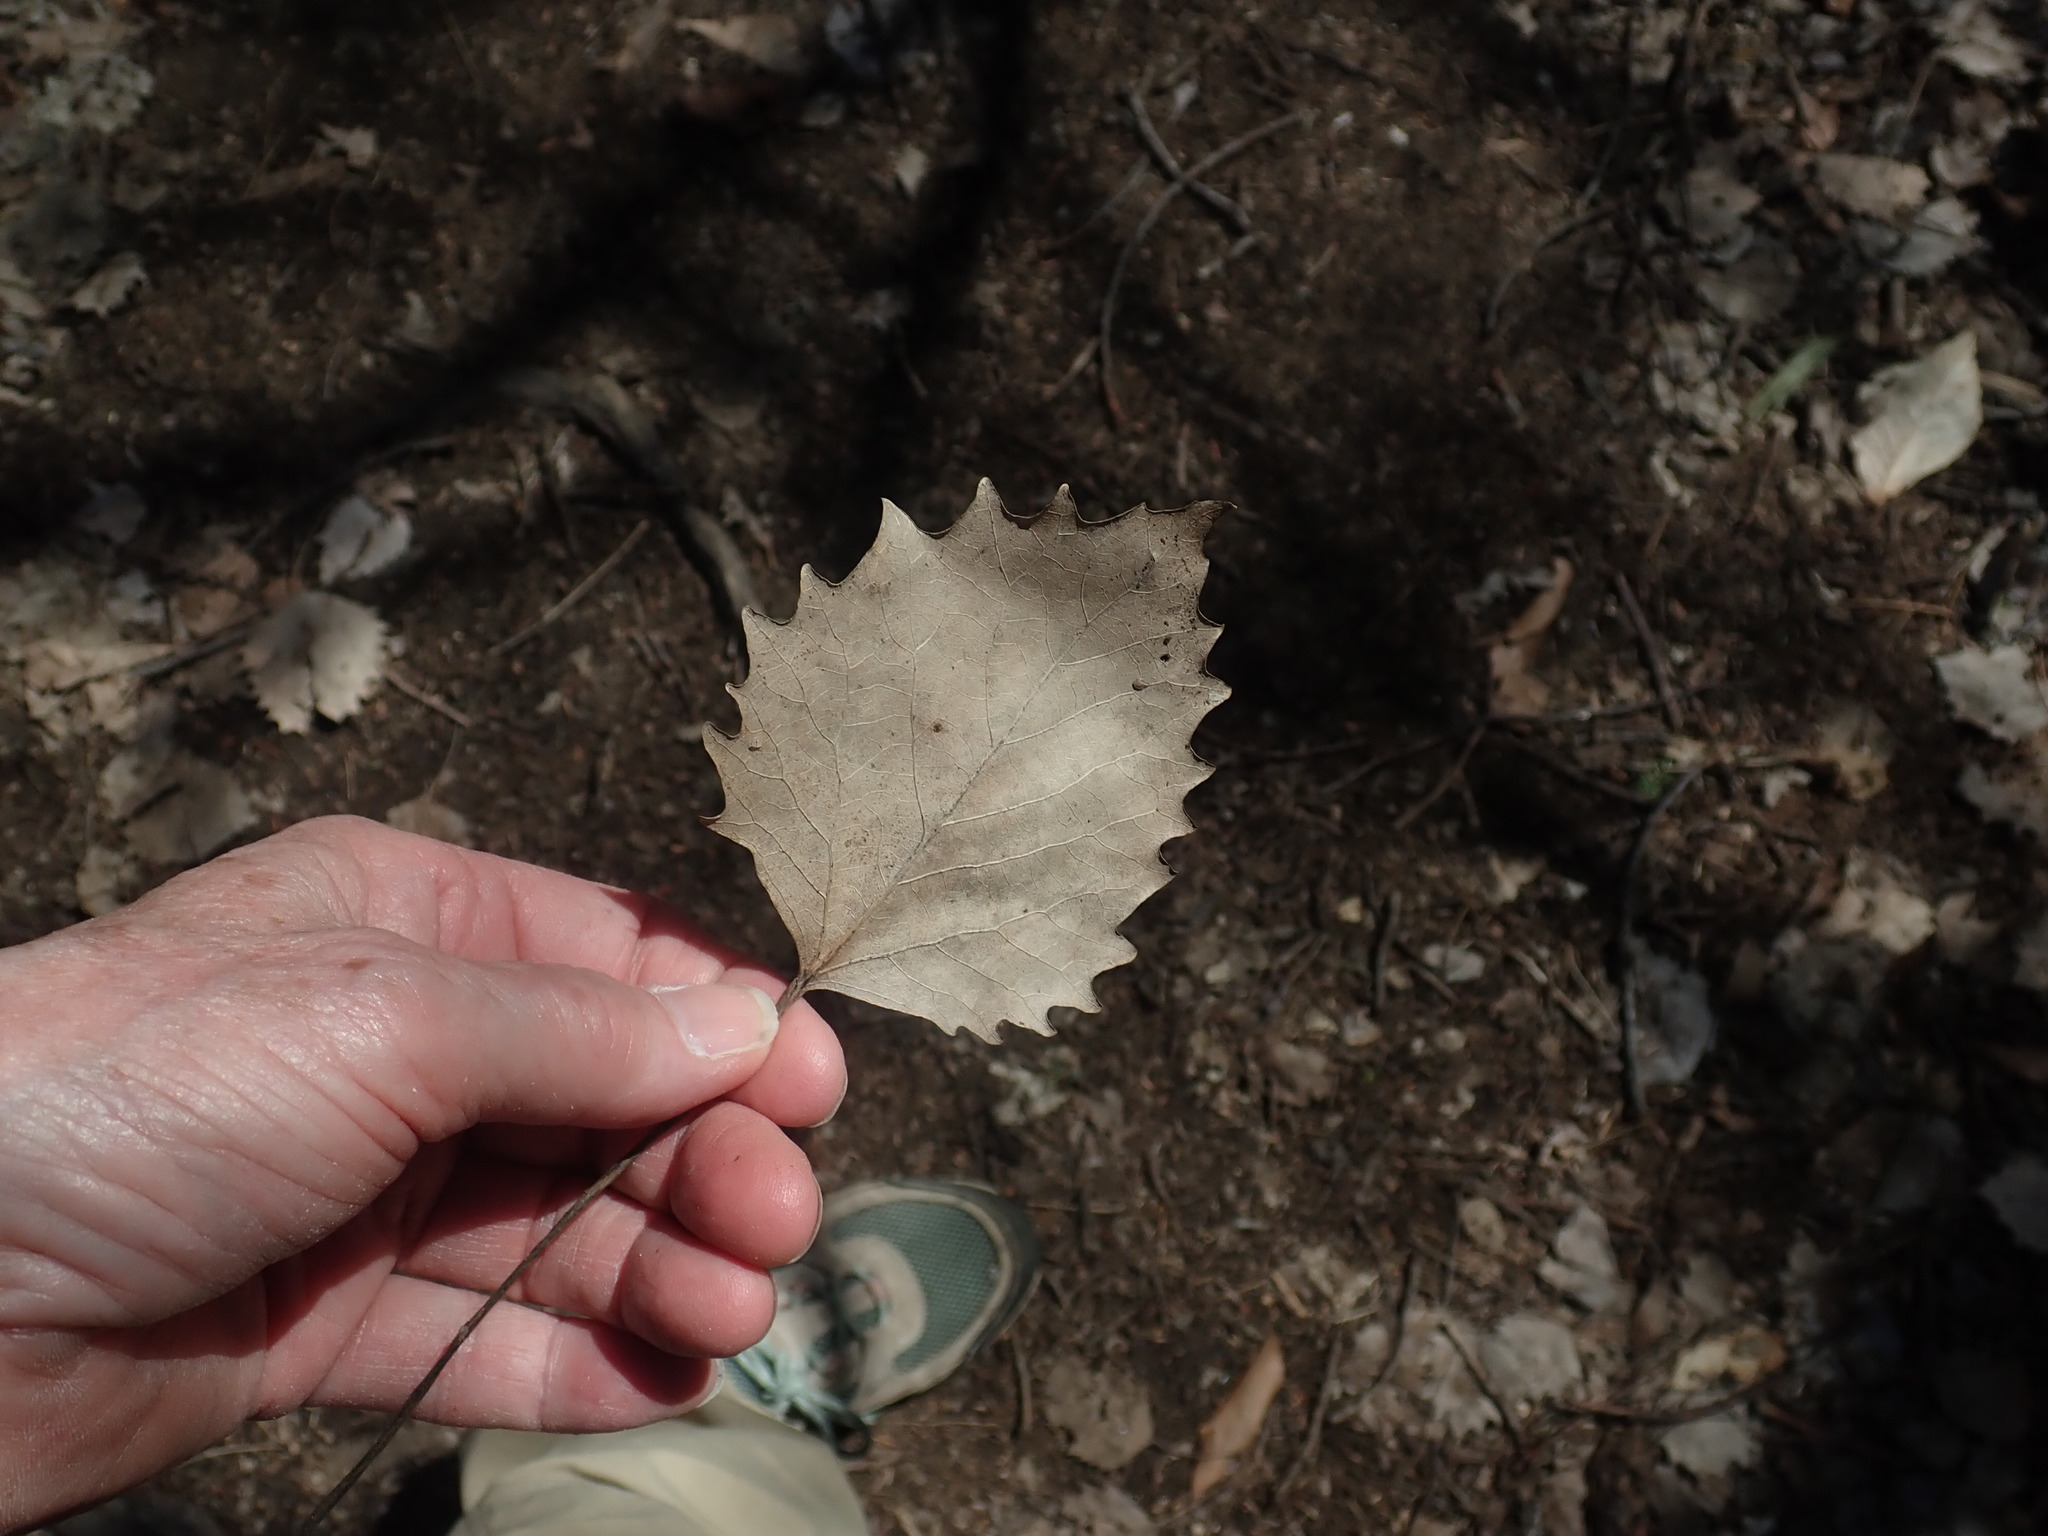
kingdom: Plantae
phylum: Tracheophyta
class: Magnoliopsida
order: Malpighiales
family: Salicaceae
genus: Populus
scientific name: Populus grandidentata
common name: Bigtooth aspen
